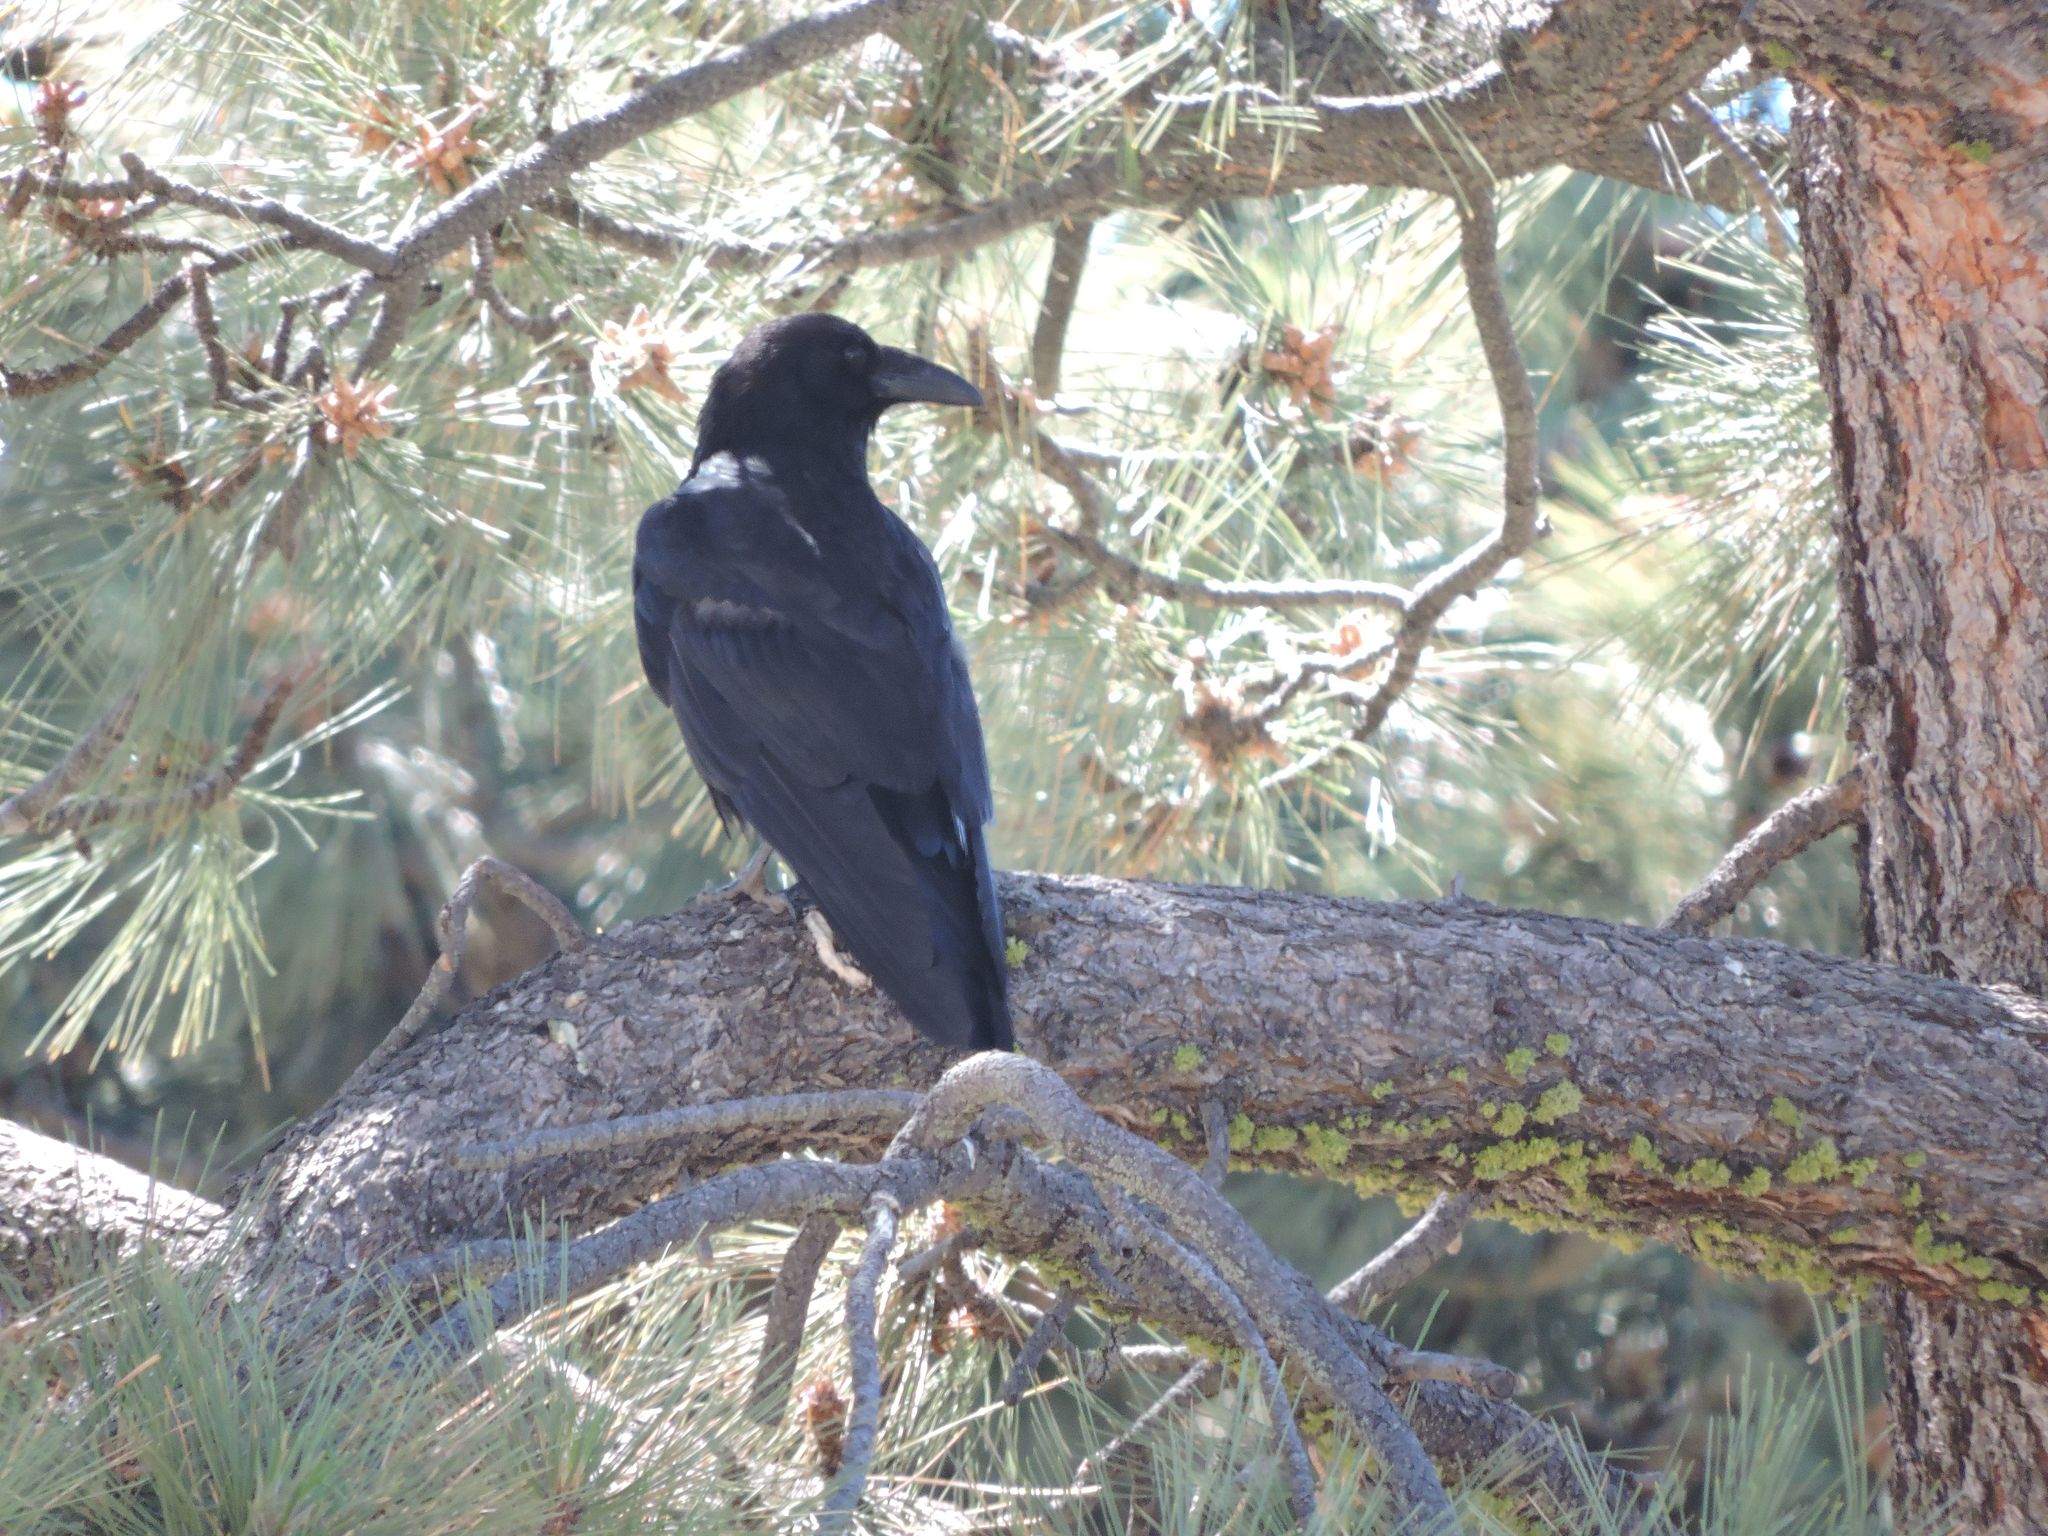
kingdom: Animalia
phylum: Chordata
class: Aves
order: Passeriformes
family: Corvidae
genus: Corvus
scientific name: Corvus corax
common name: Common raven
